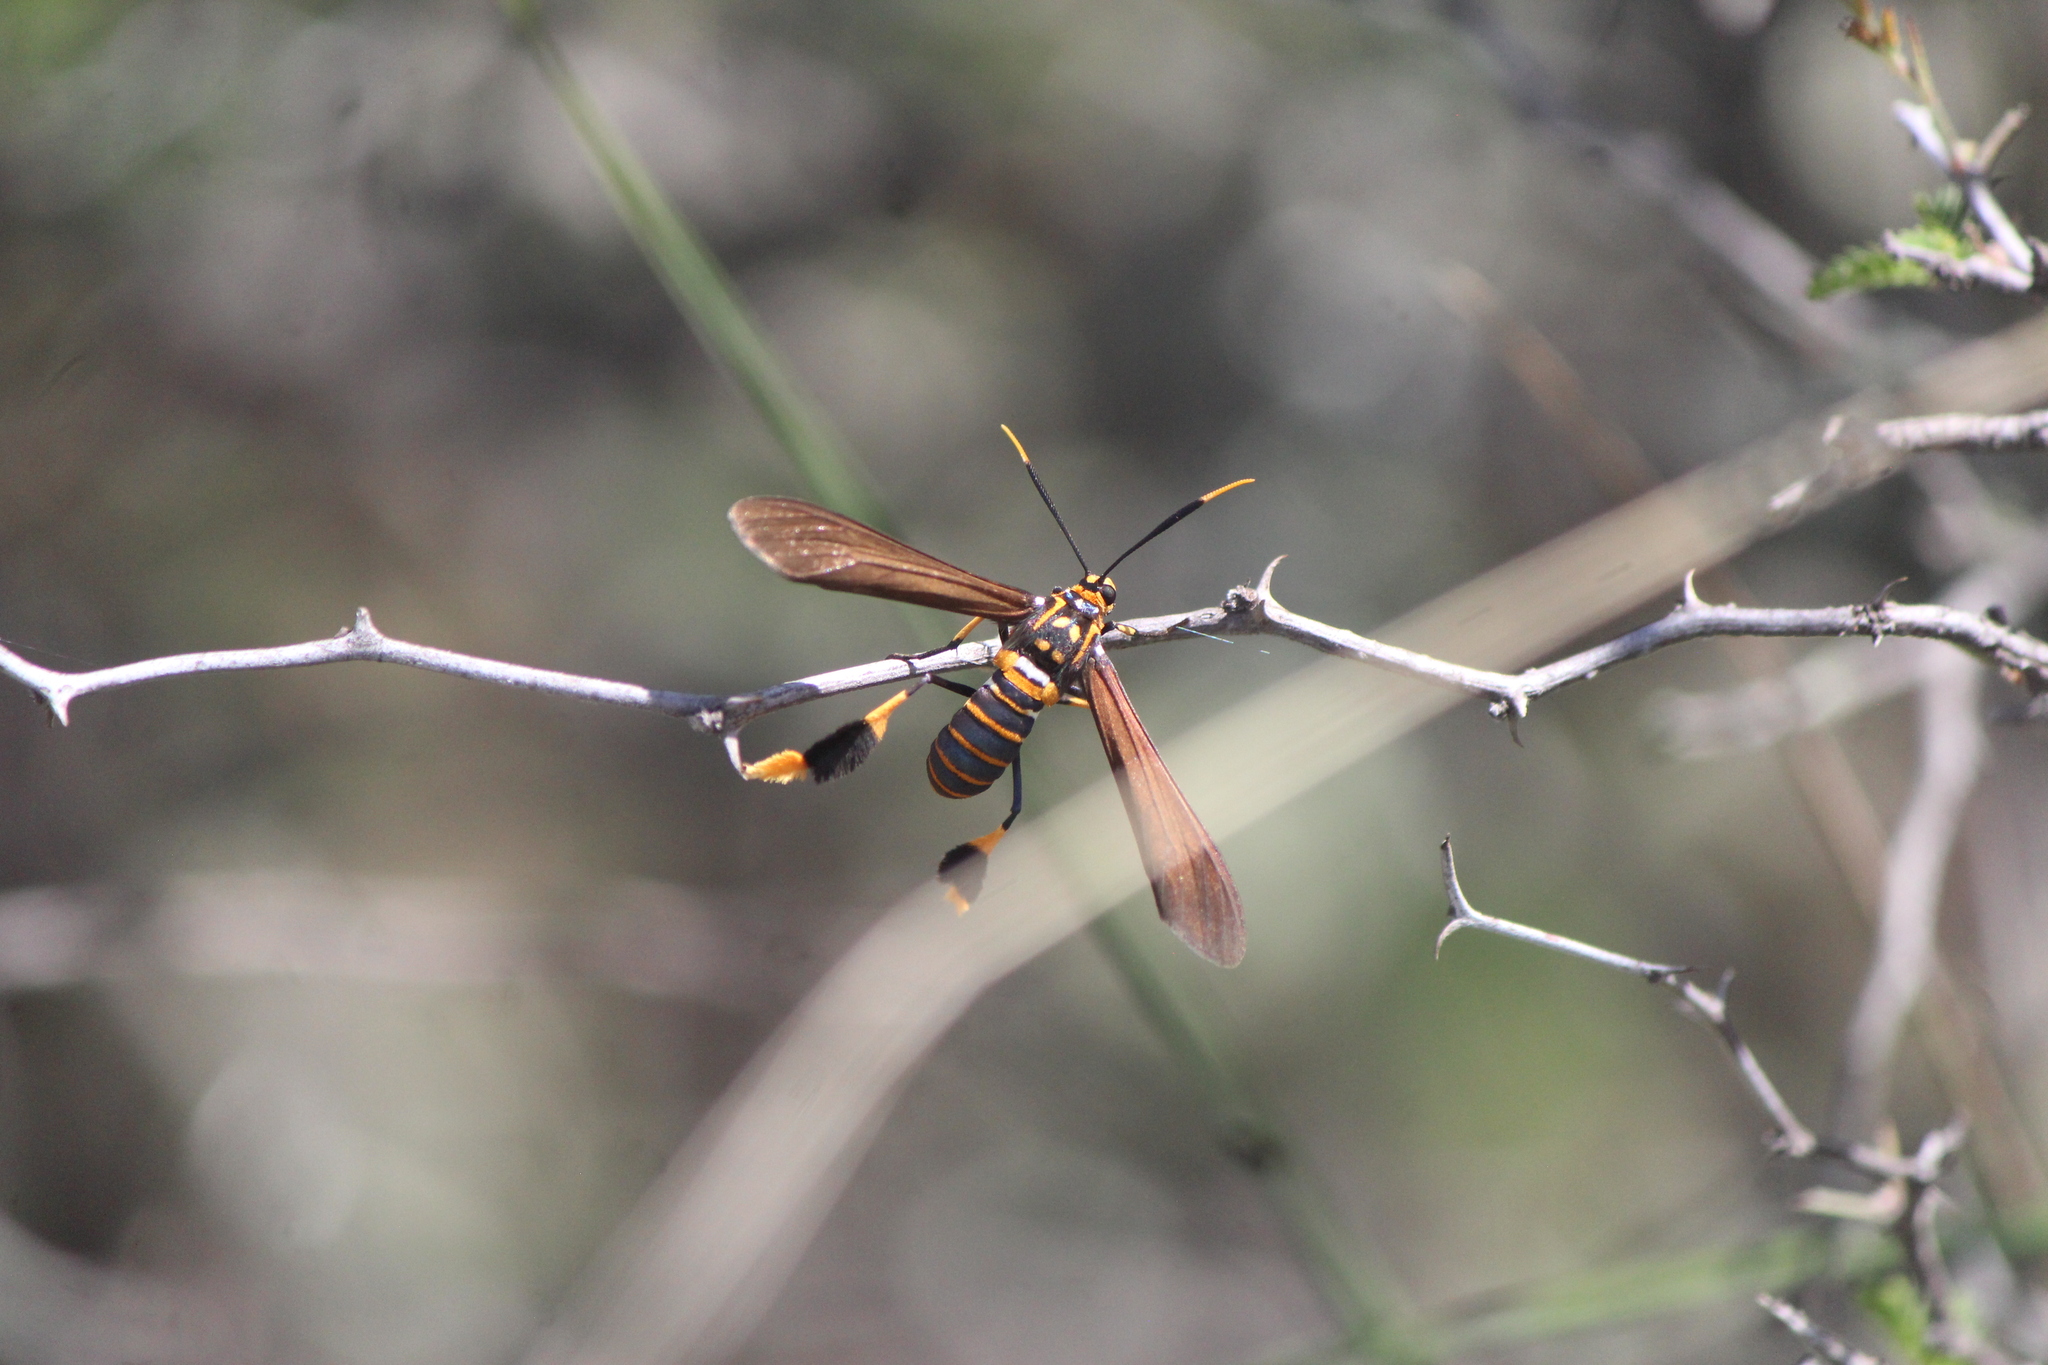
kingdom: Animalia
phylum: Arthropoda
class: Insecta
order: Lepidoptera
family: Erebidae
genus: Horama
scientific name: Horama panthalon
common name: Texas wasp moth
